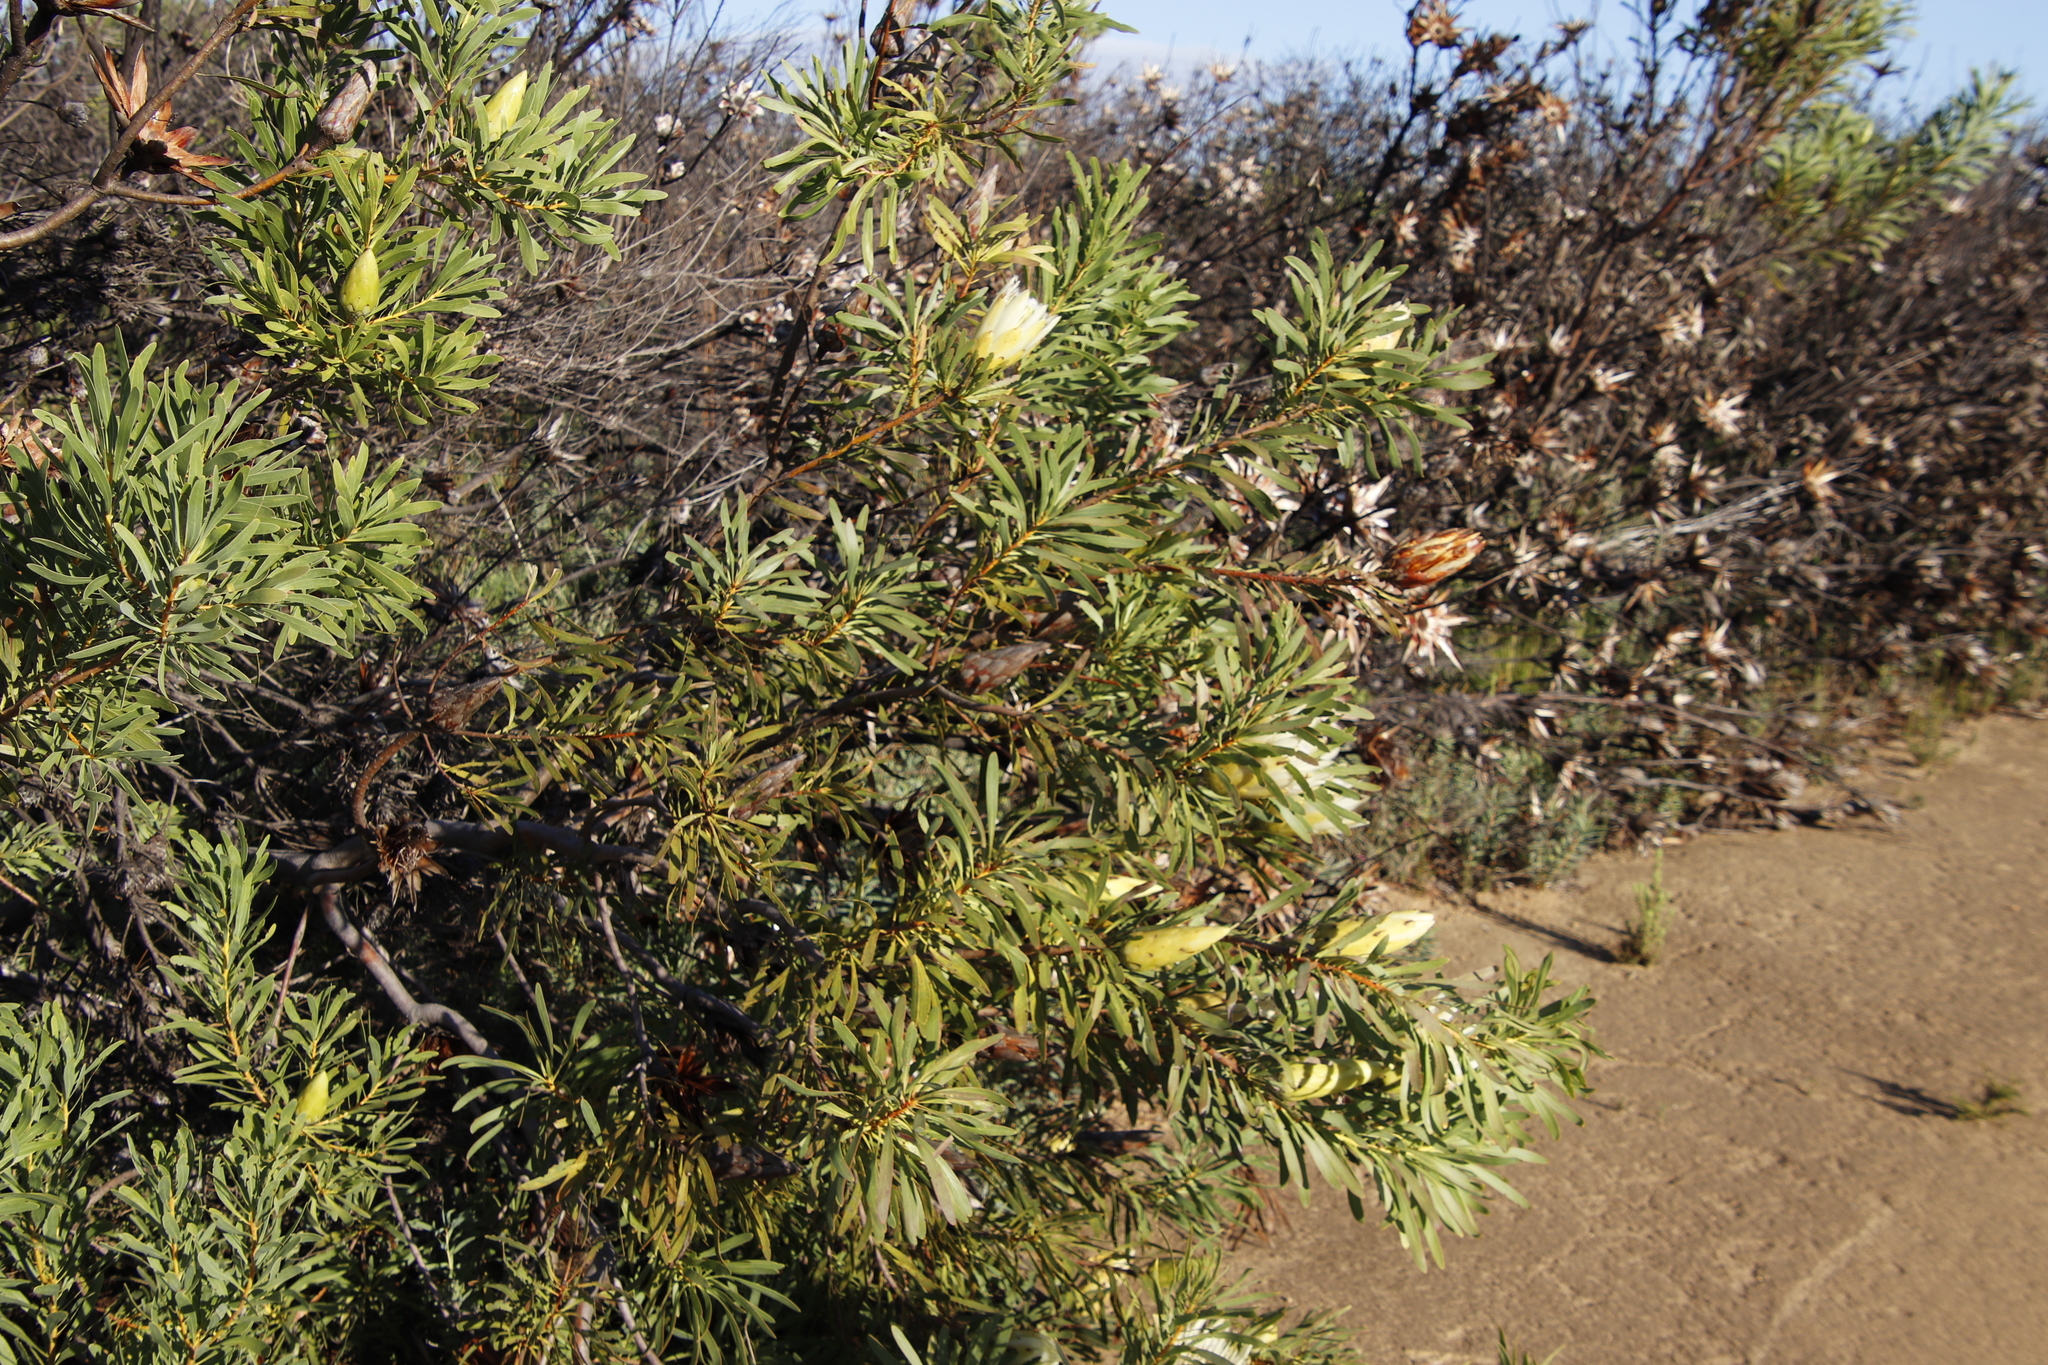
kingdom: Plantae
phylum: Tracheophyta
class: Magnoliopsida
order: Proteales
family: Proteaceae
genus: Protea
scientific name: Protea repens
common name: Sugarbush
